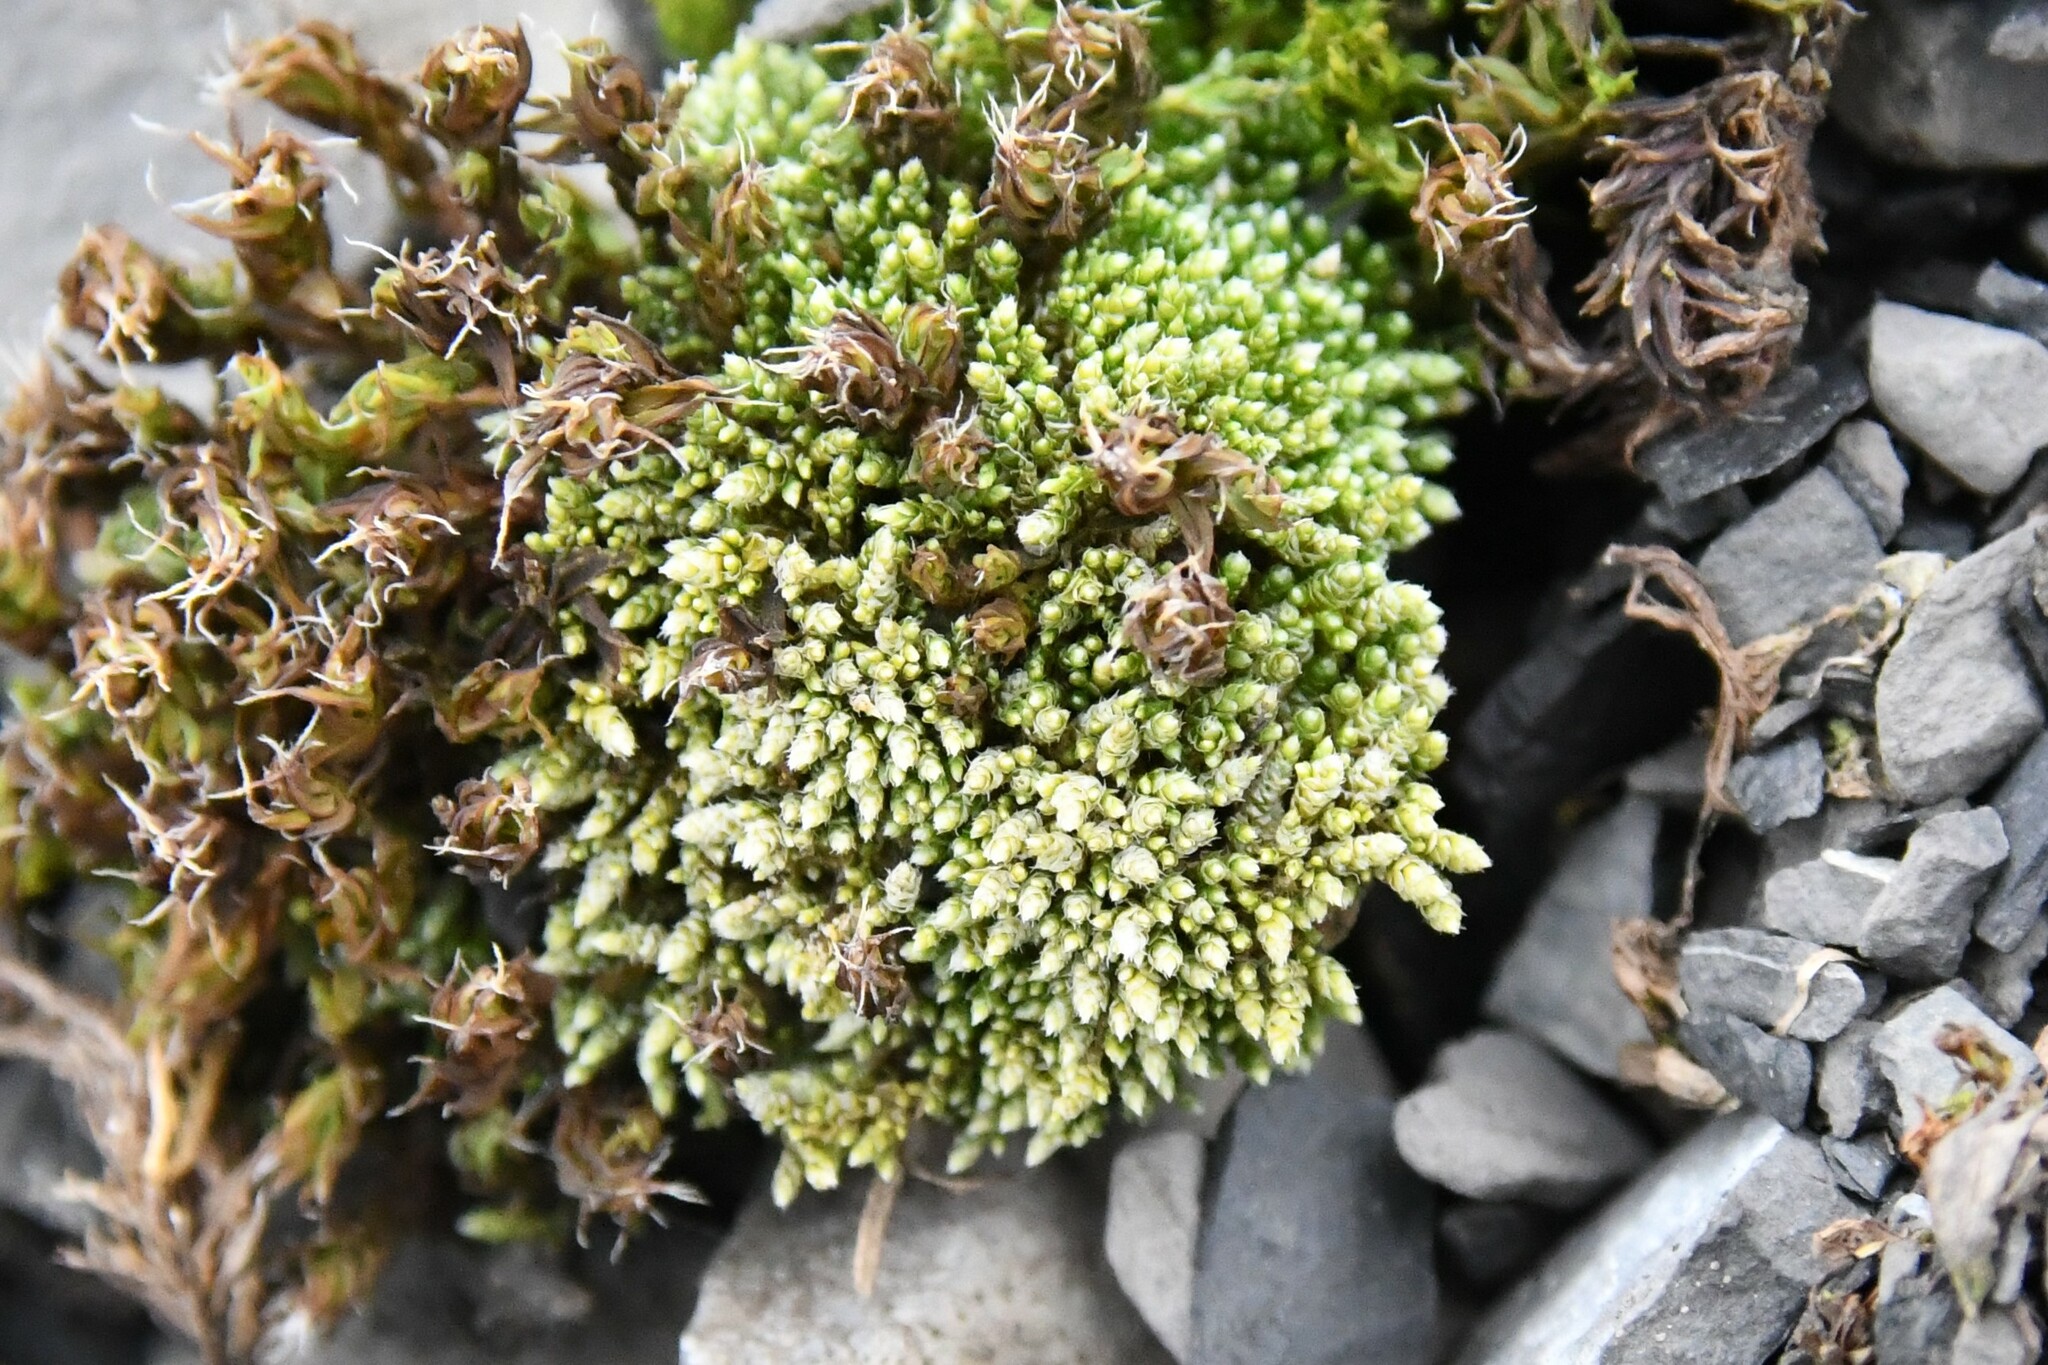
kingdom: Plantae
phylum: Bryophyta
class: Bryopsida
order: Bryales
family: Bryaceae
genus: Bryum
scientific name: Bryum argenteum
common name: Silver-moss
